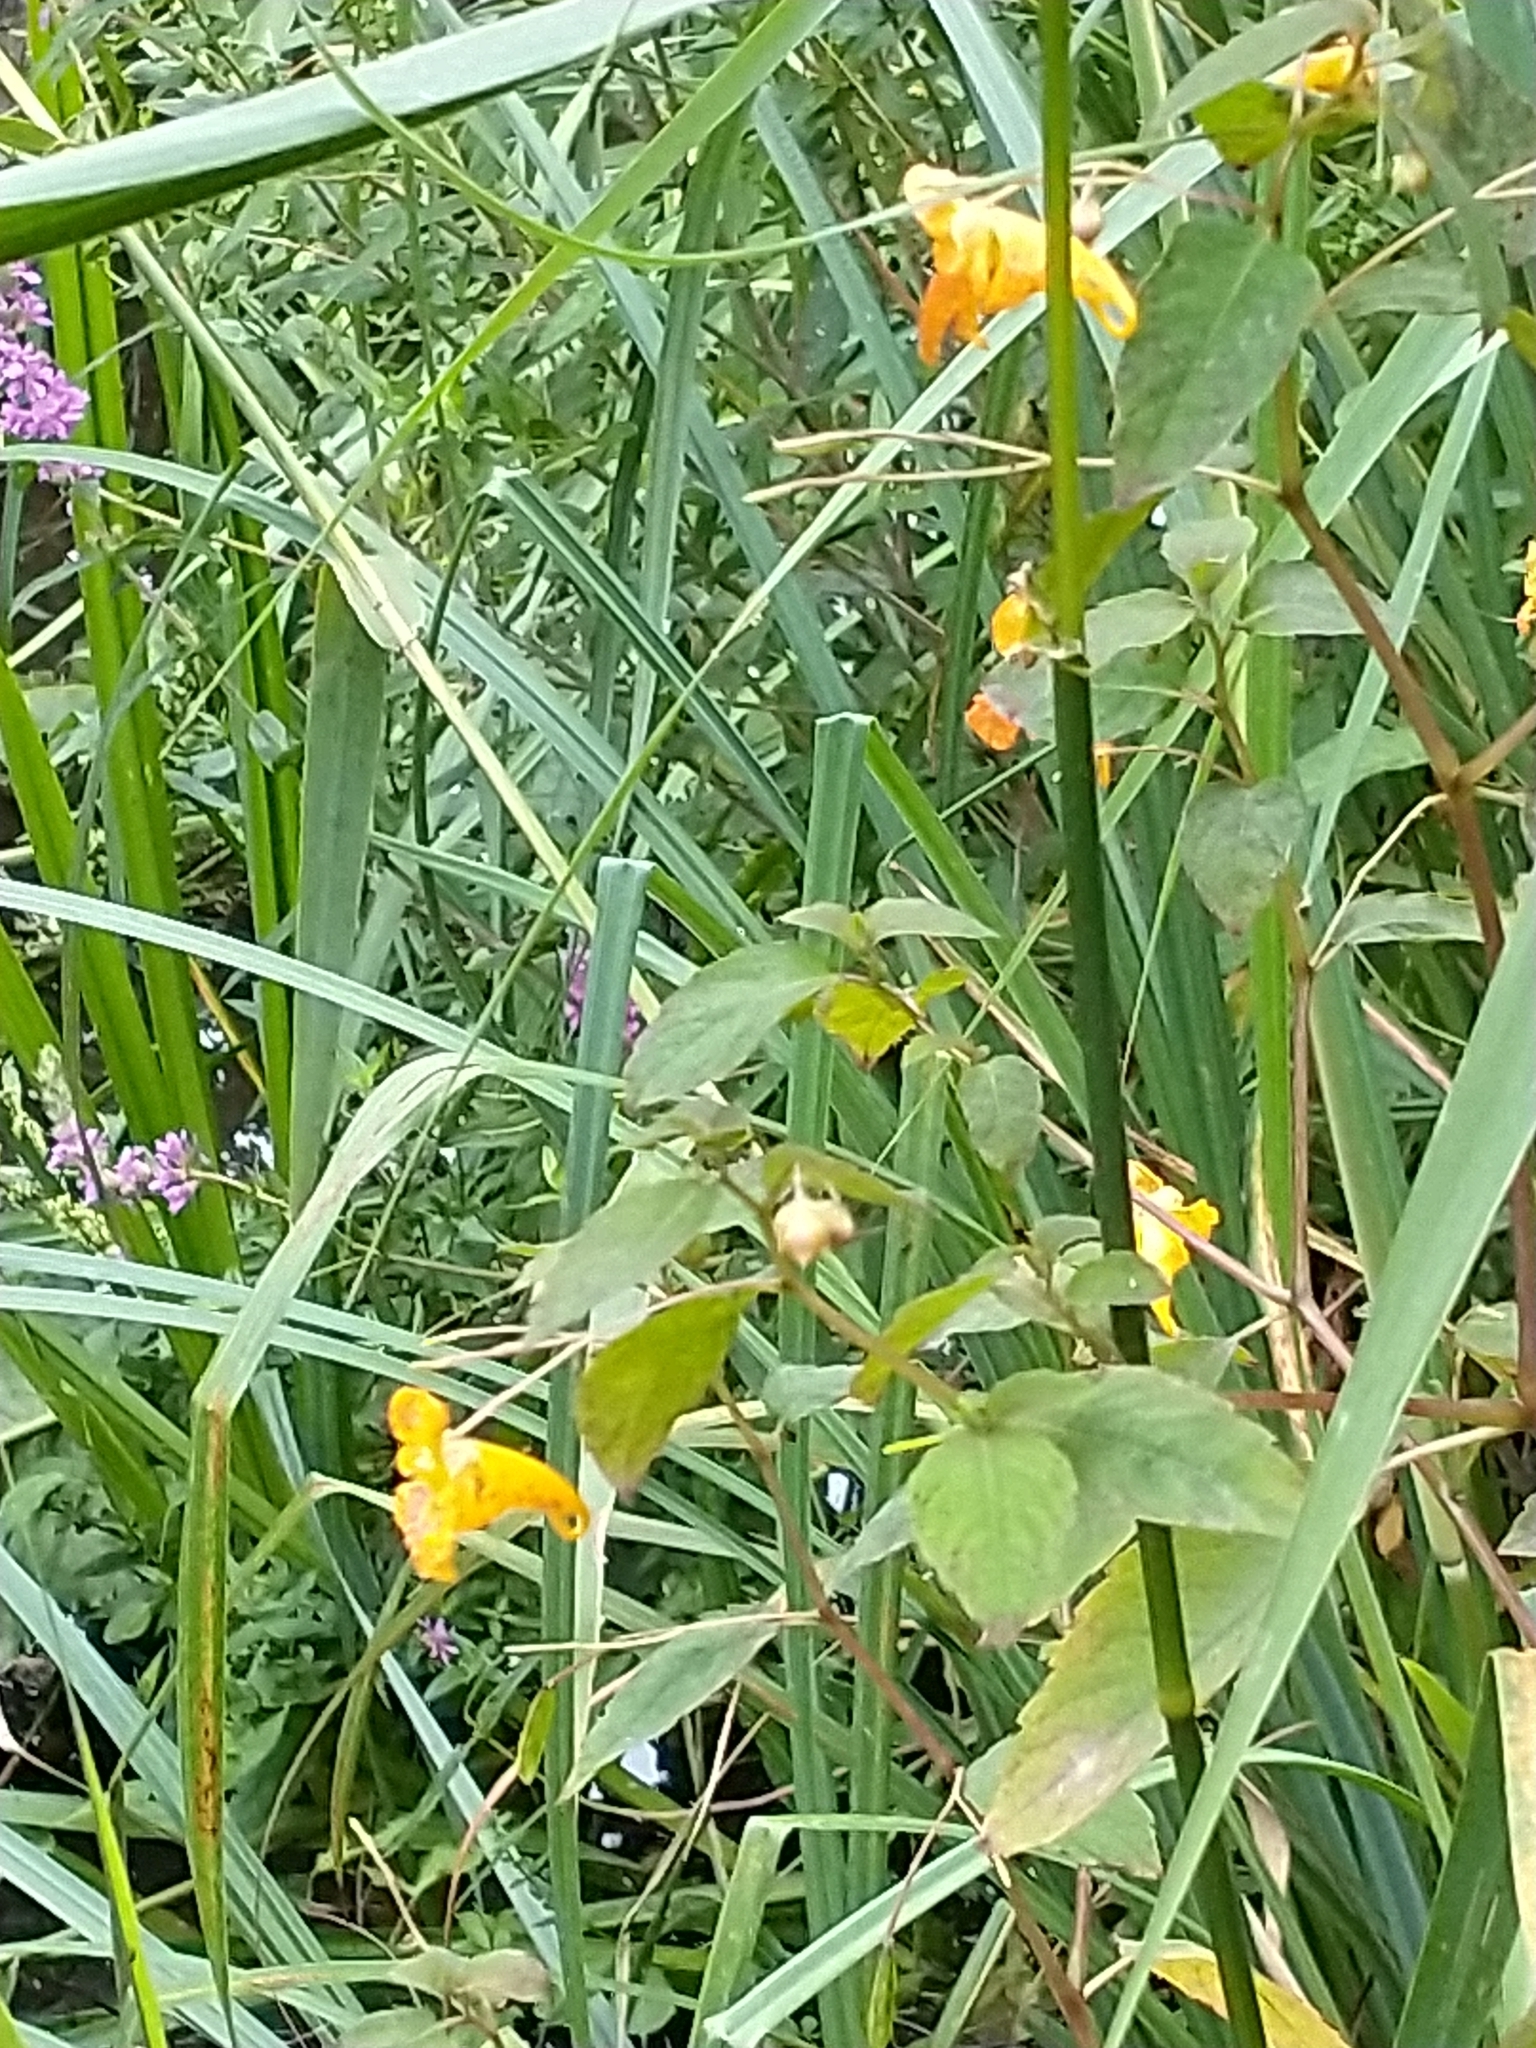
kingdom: Plantae
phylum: Tracheophyta
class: Magnoliopsida
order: Ericales
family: Balsaminaceae
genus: Impatiens
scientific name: Impatiens capensis
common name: Orange balsam
